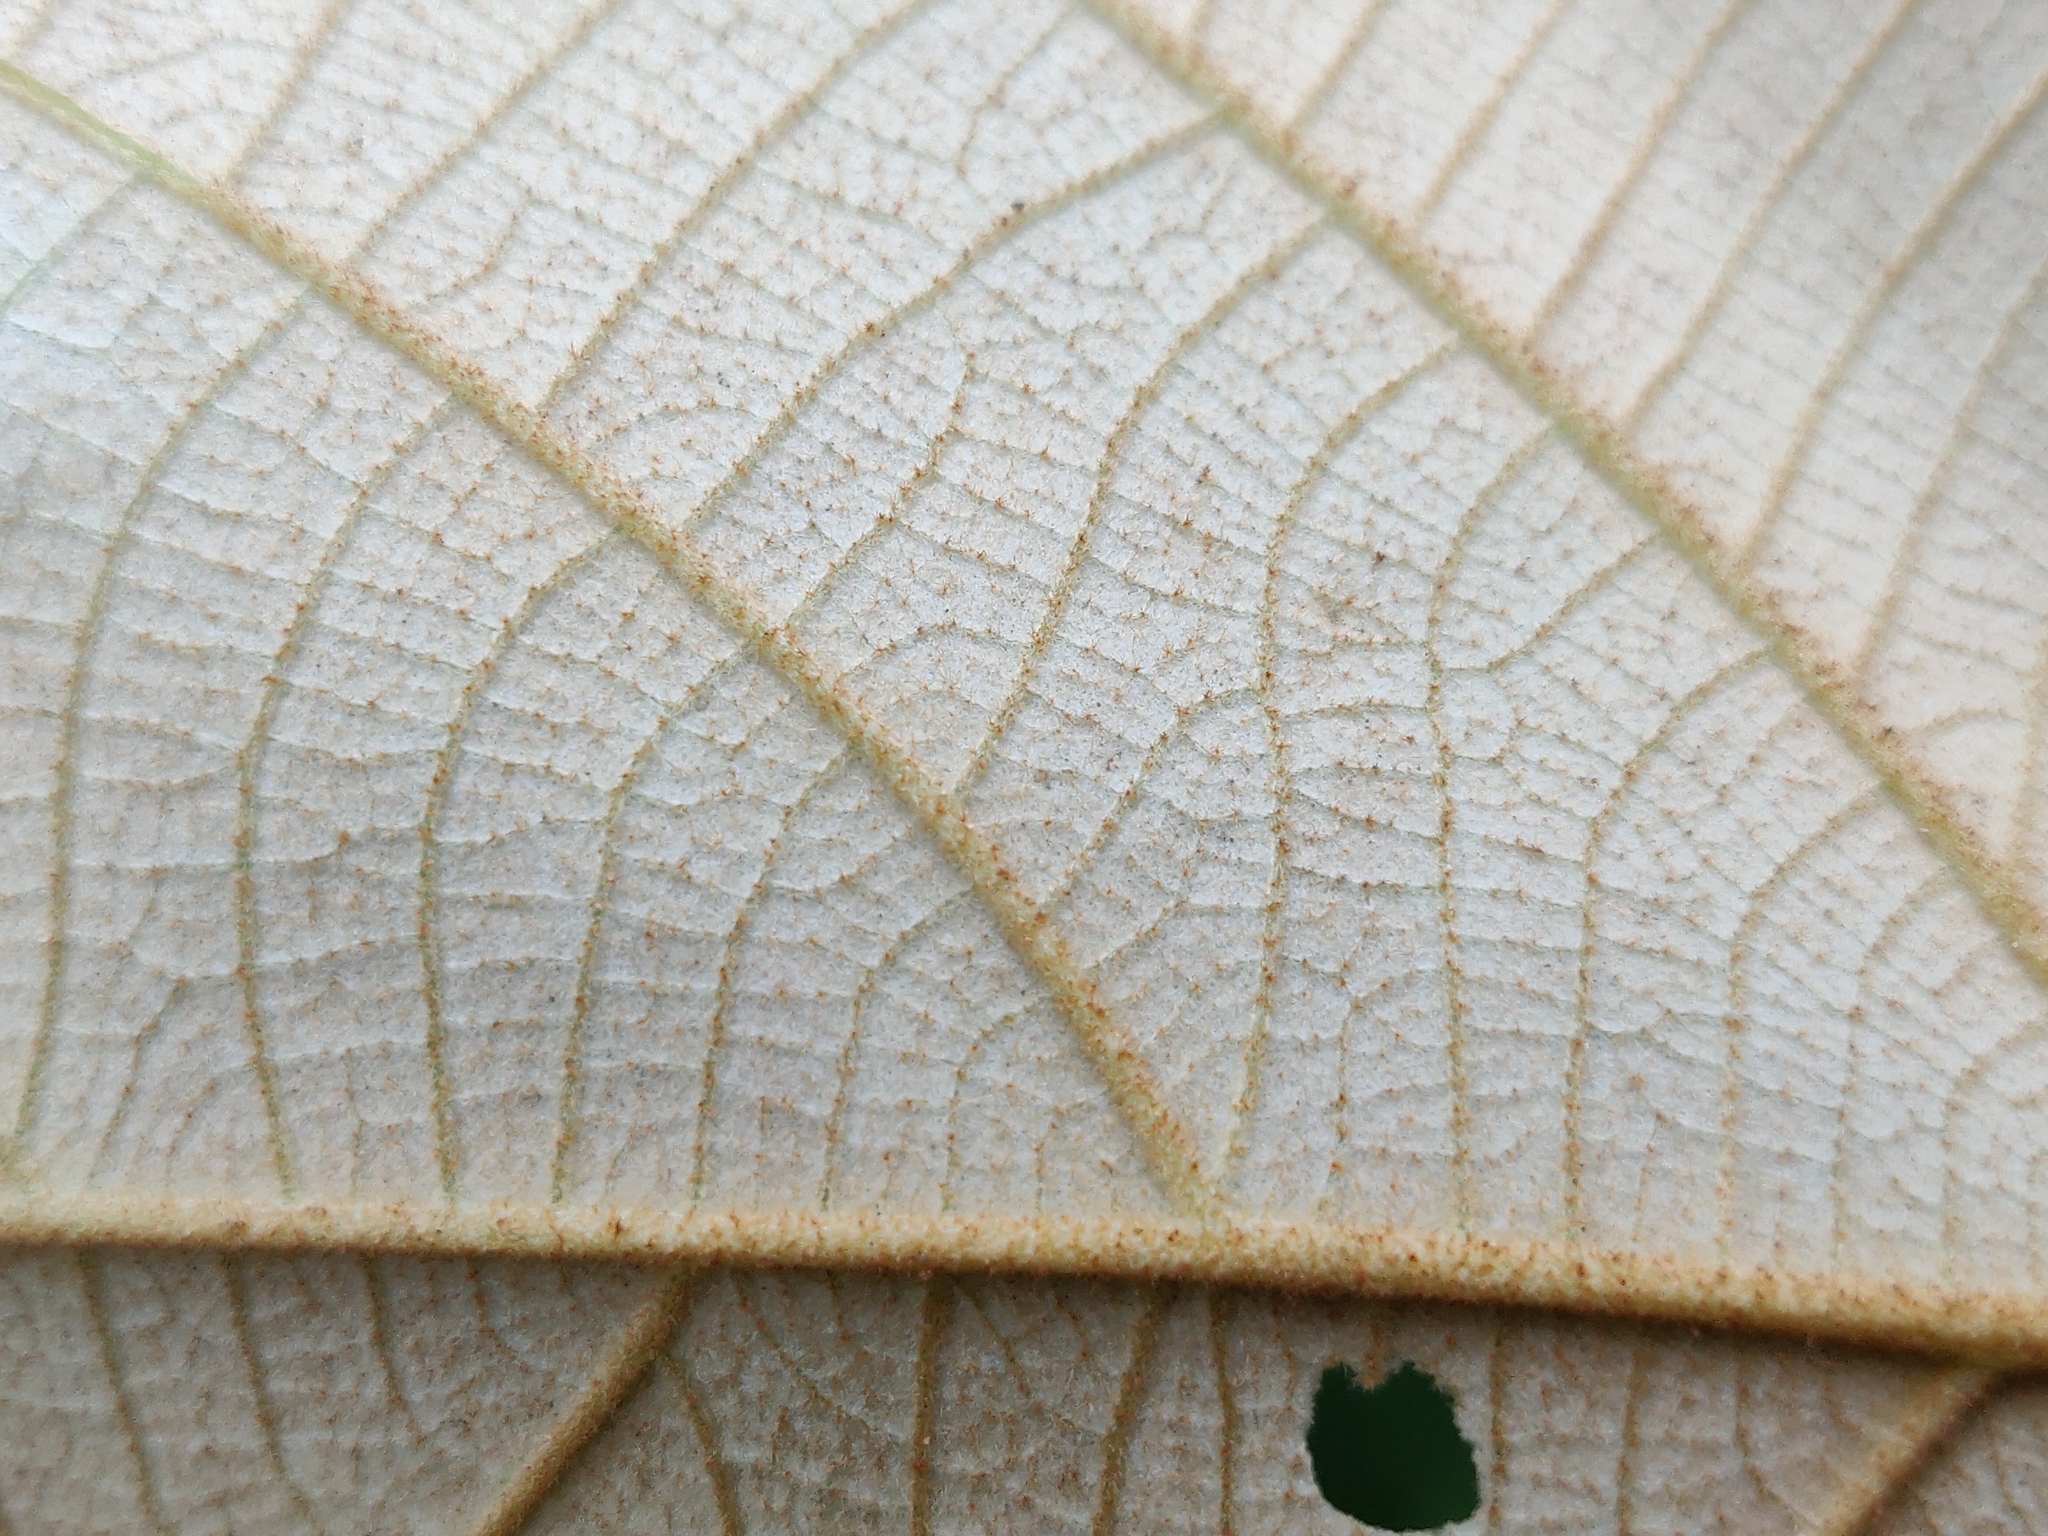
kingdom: Plantae
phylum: Tracheophyta
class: Magnoliopsida
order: Malpighiales
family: Euphorbiaceae
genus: Mallotus
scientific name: Mallotus tetracoccus
